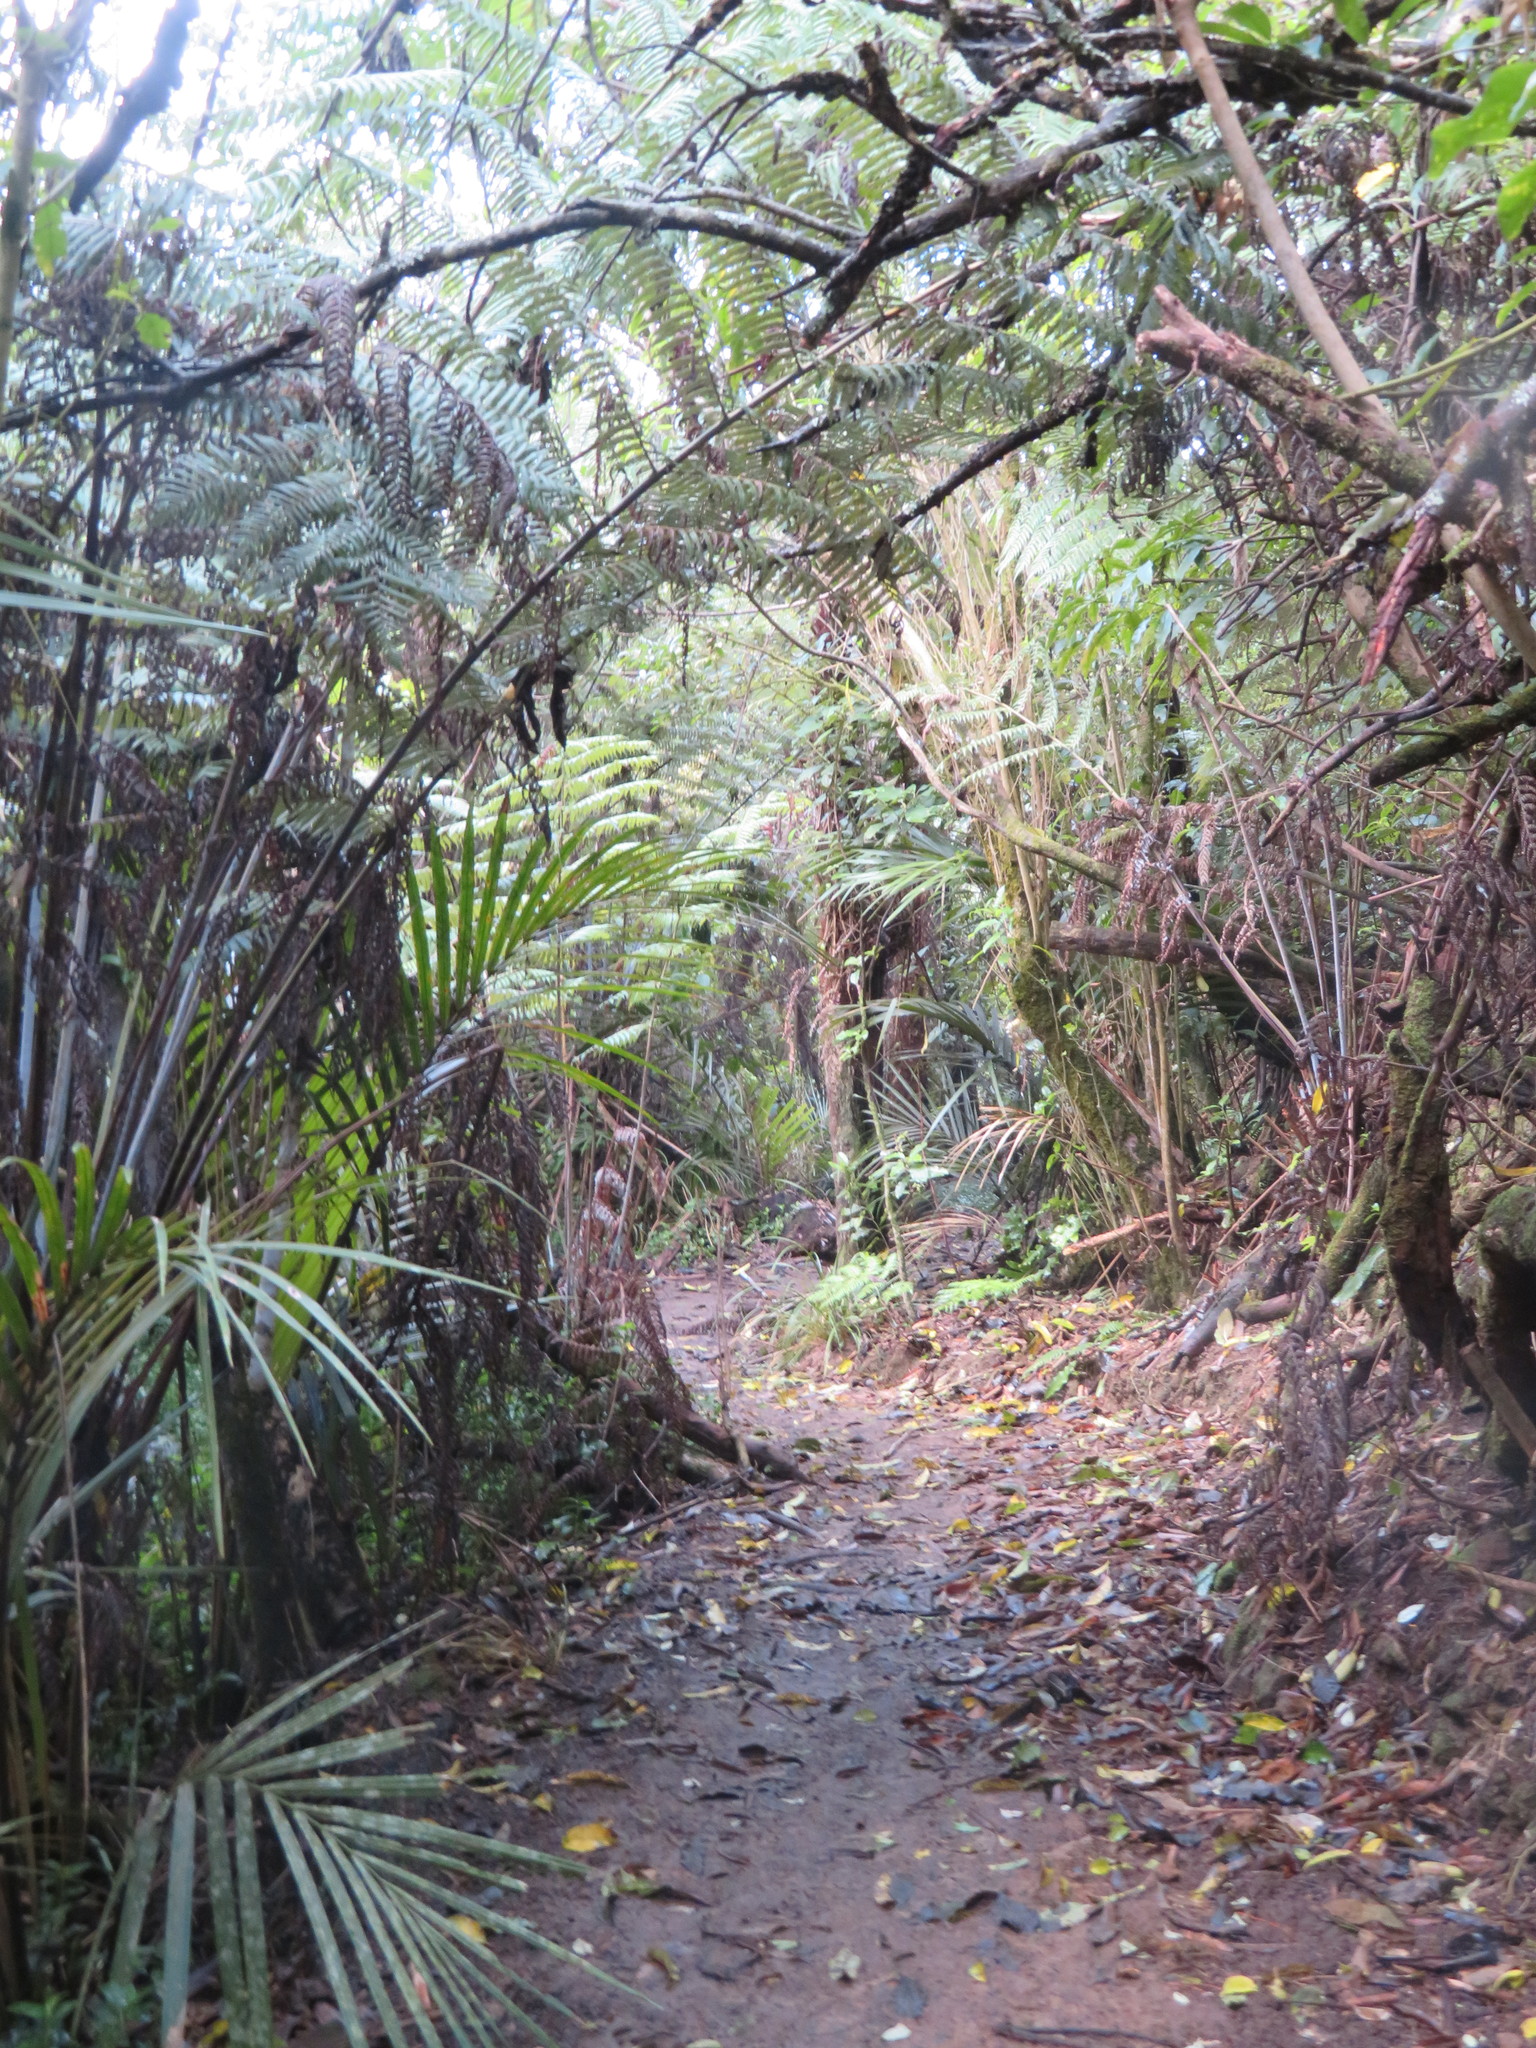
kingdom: Plantae
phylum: Tracheophyta
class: Liliopsida
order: Arecales
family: Arecaceae
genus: Rhopalostylis
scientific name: Rhopalostylis sapida
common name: Feather-duster palm
